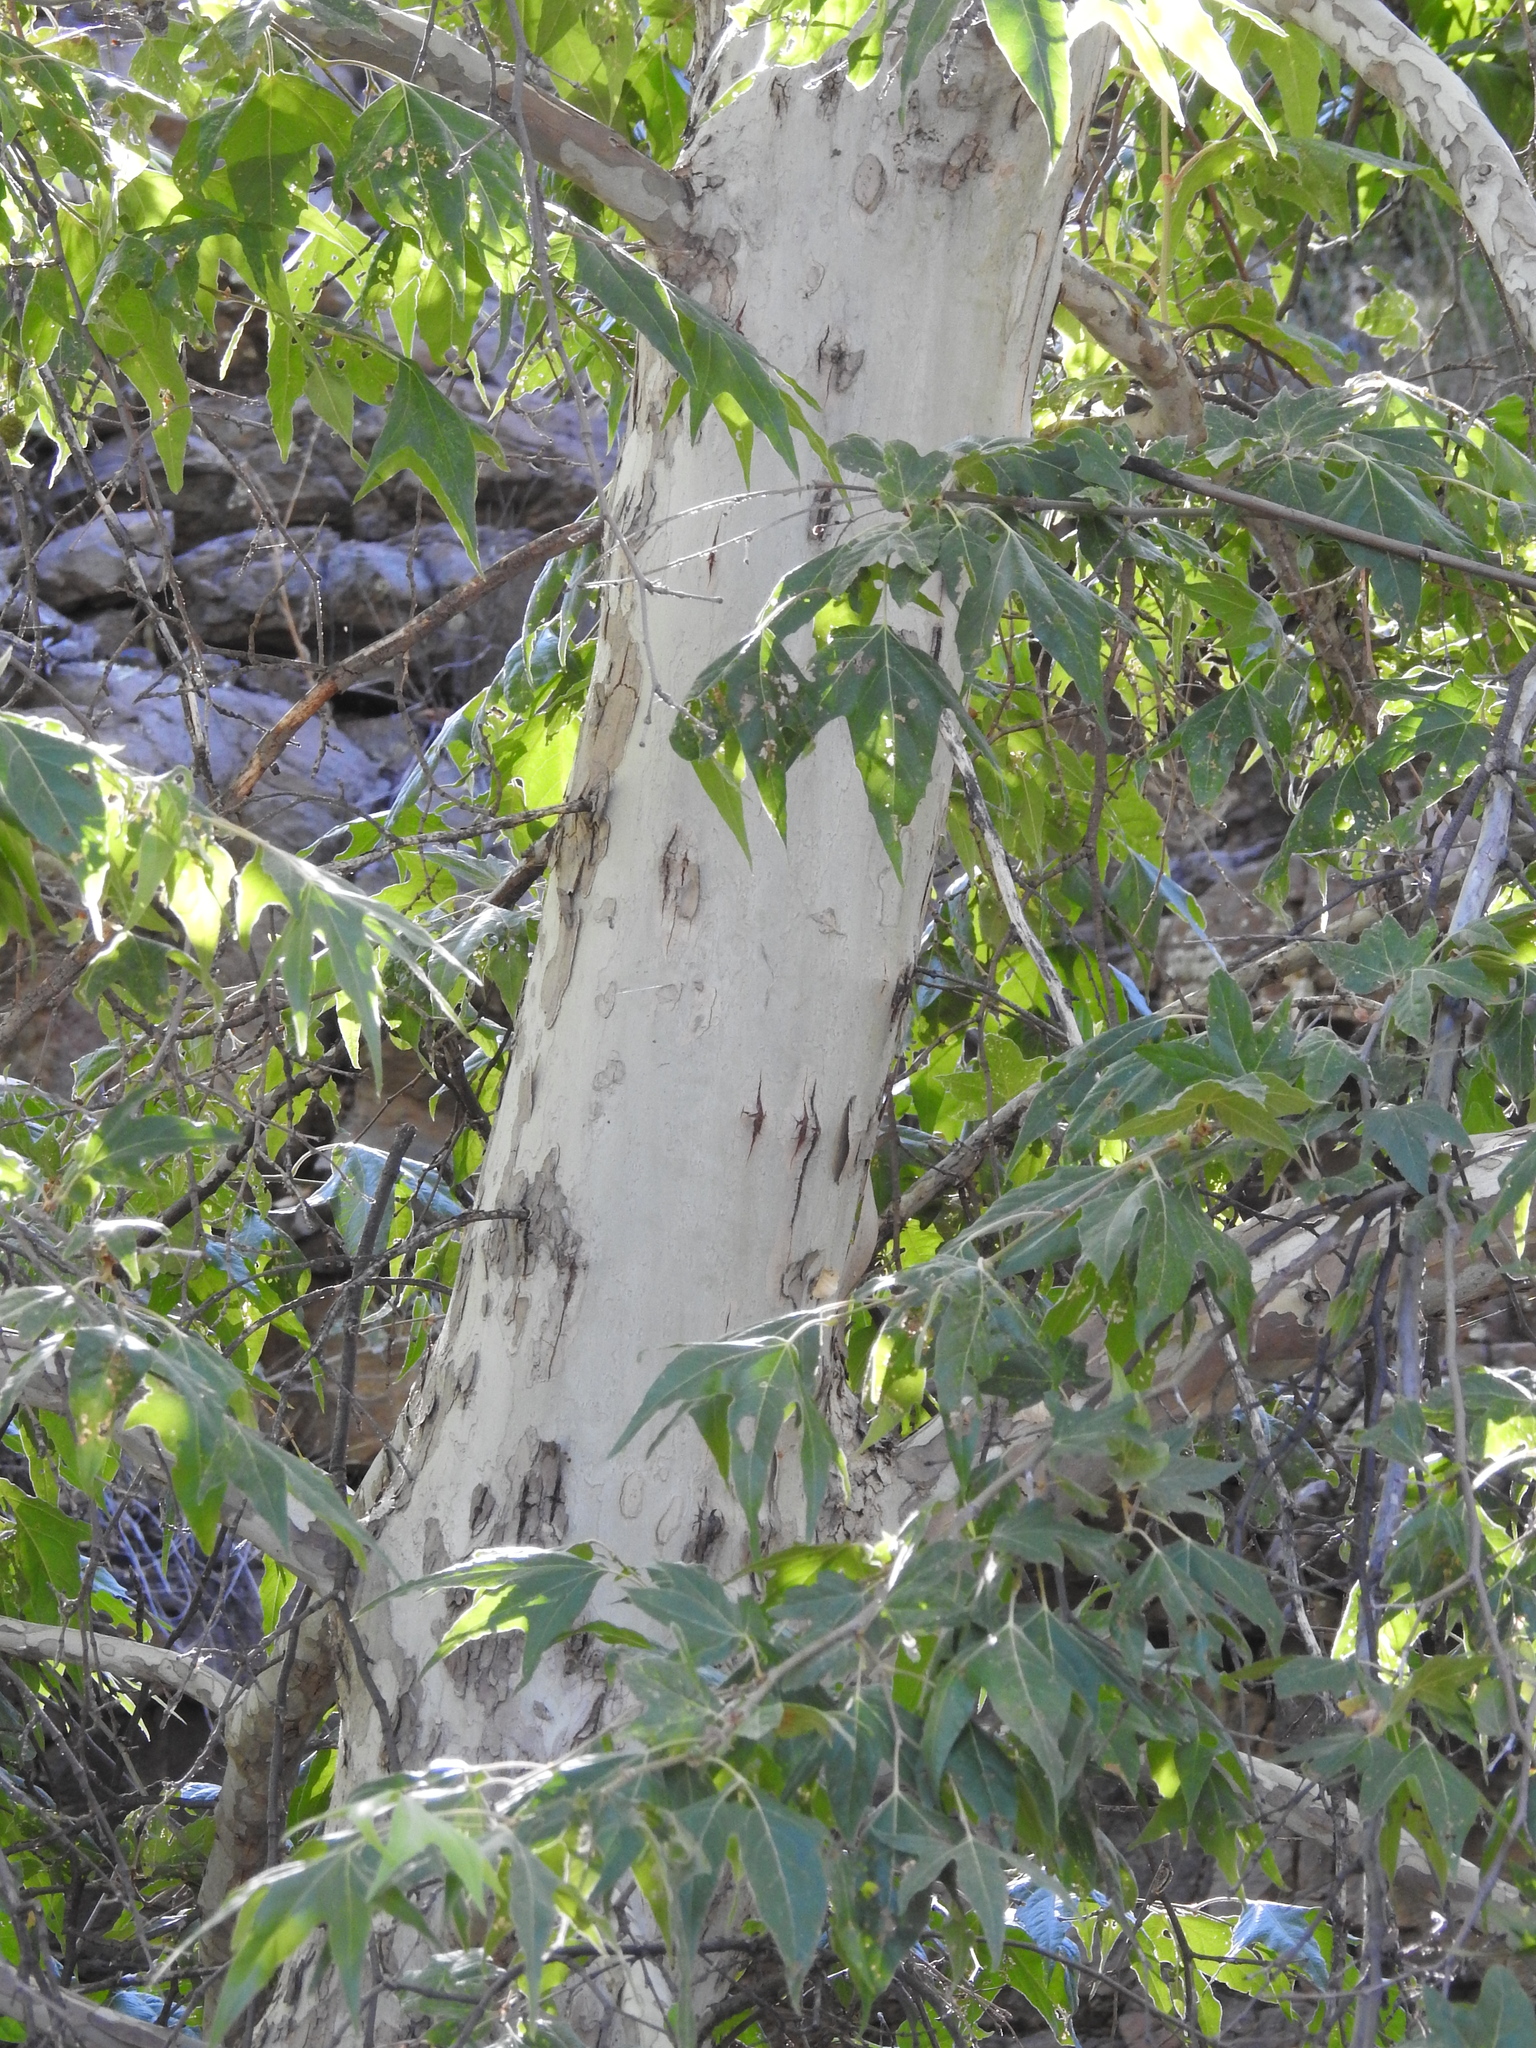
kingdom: Plantae
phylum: Tracheophyta
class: Magnoliopsida
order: Proteales
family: Platanaceae
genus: Platanus
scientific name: Platanus wrightii
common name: Arizona sycamore
